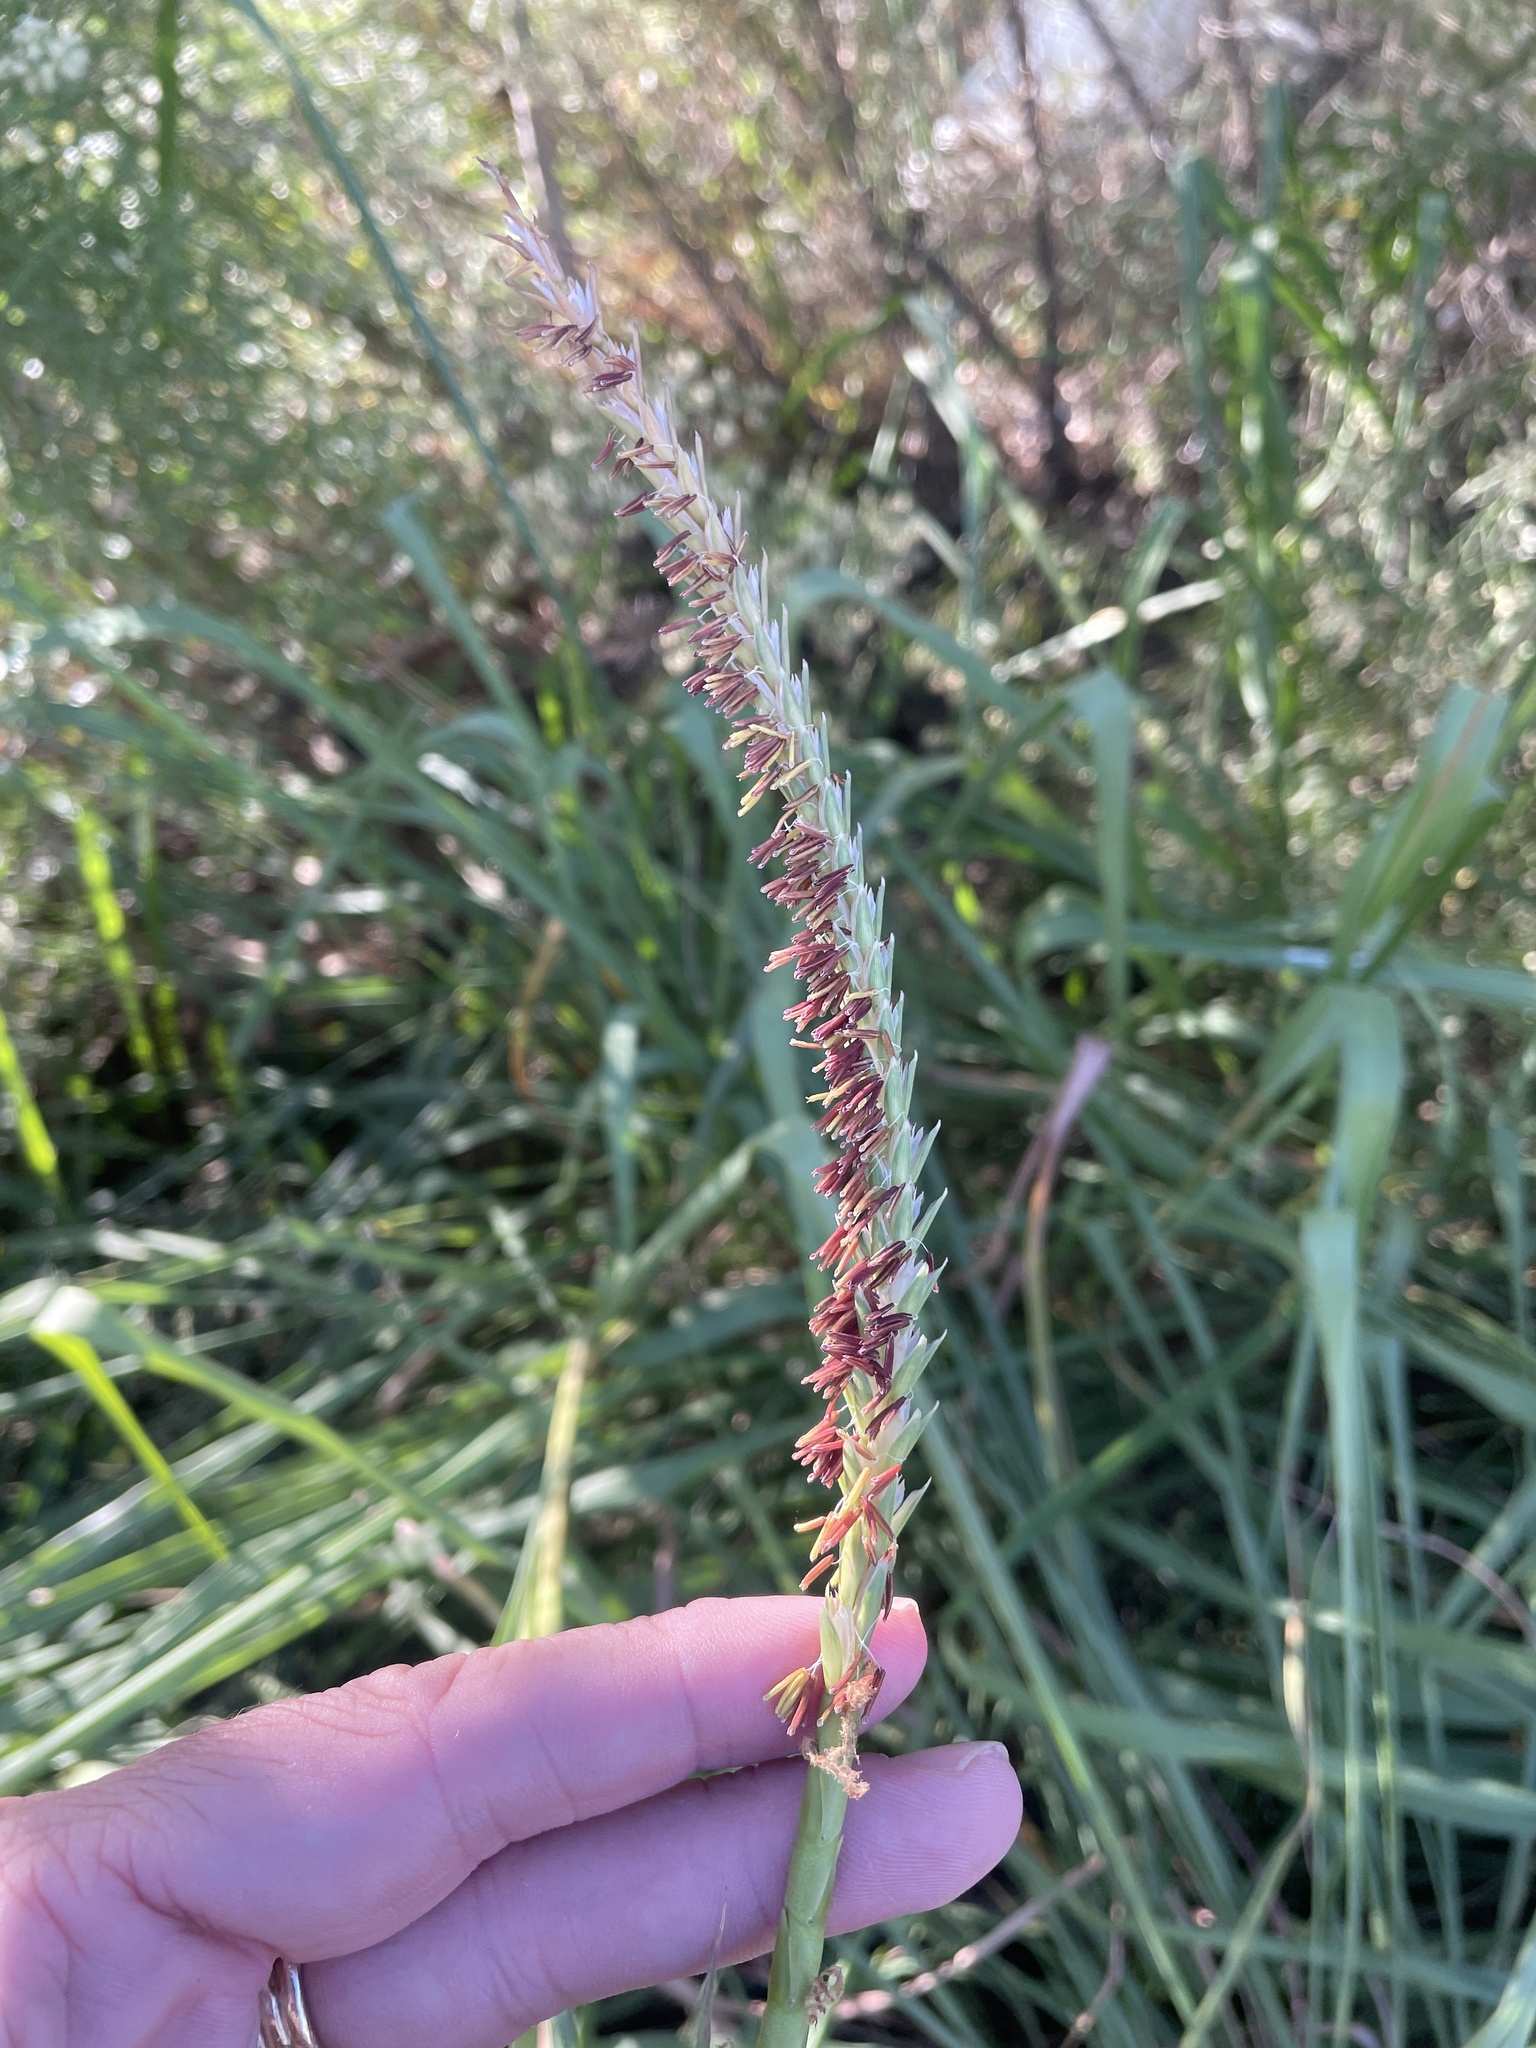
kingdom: Plantae
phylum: Tracheophyta
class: Liliopsida
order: Poales
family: Poaceae
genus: Tripsacum
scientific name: Tripsacum dactyloides
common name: Buffalo-grass
